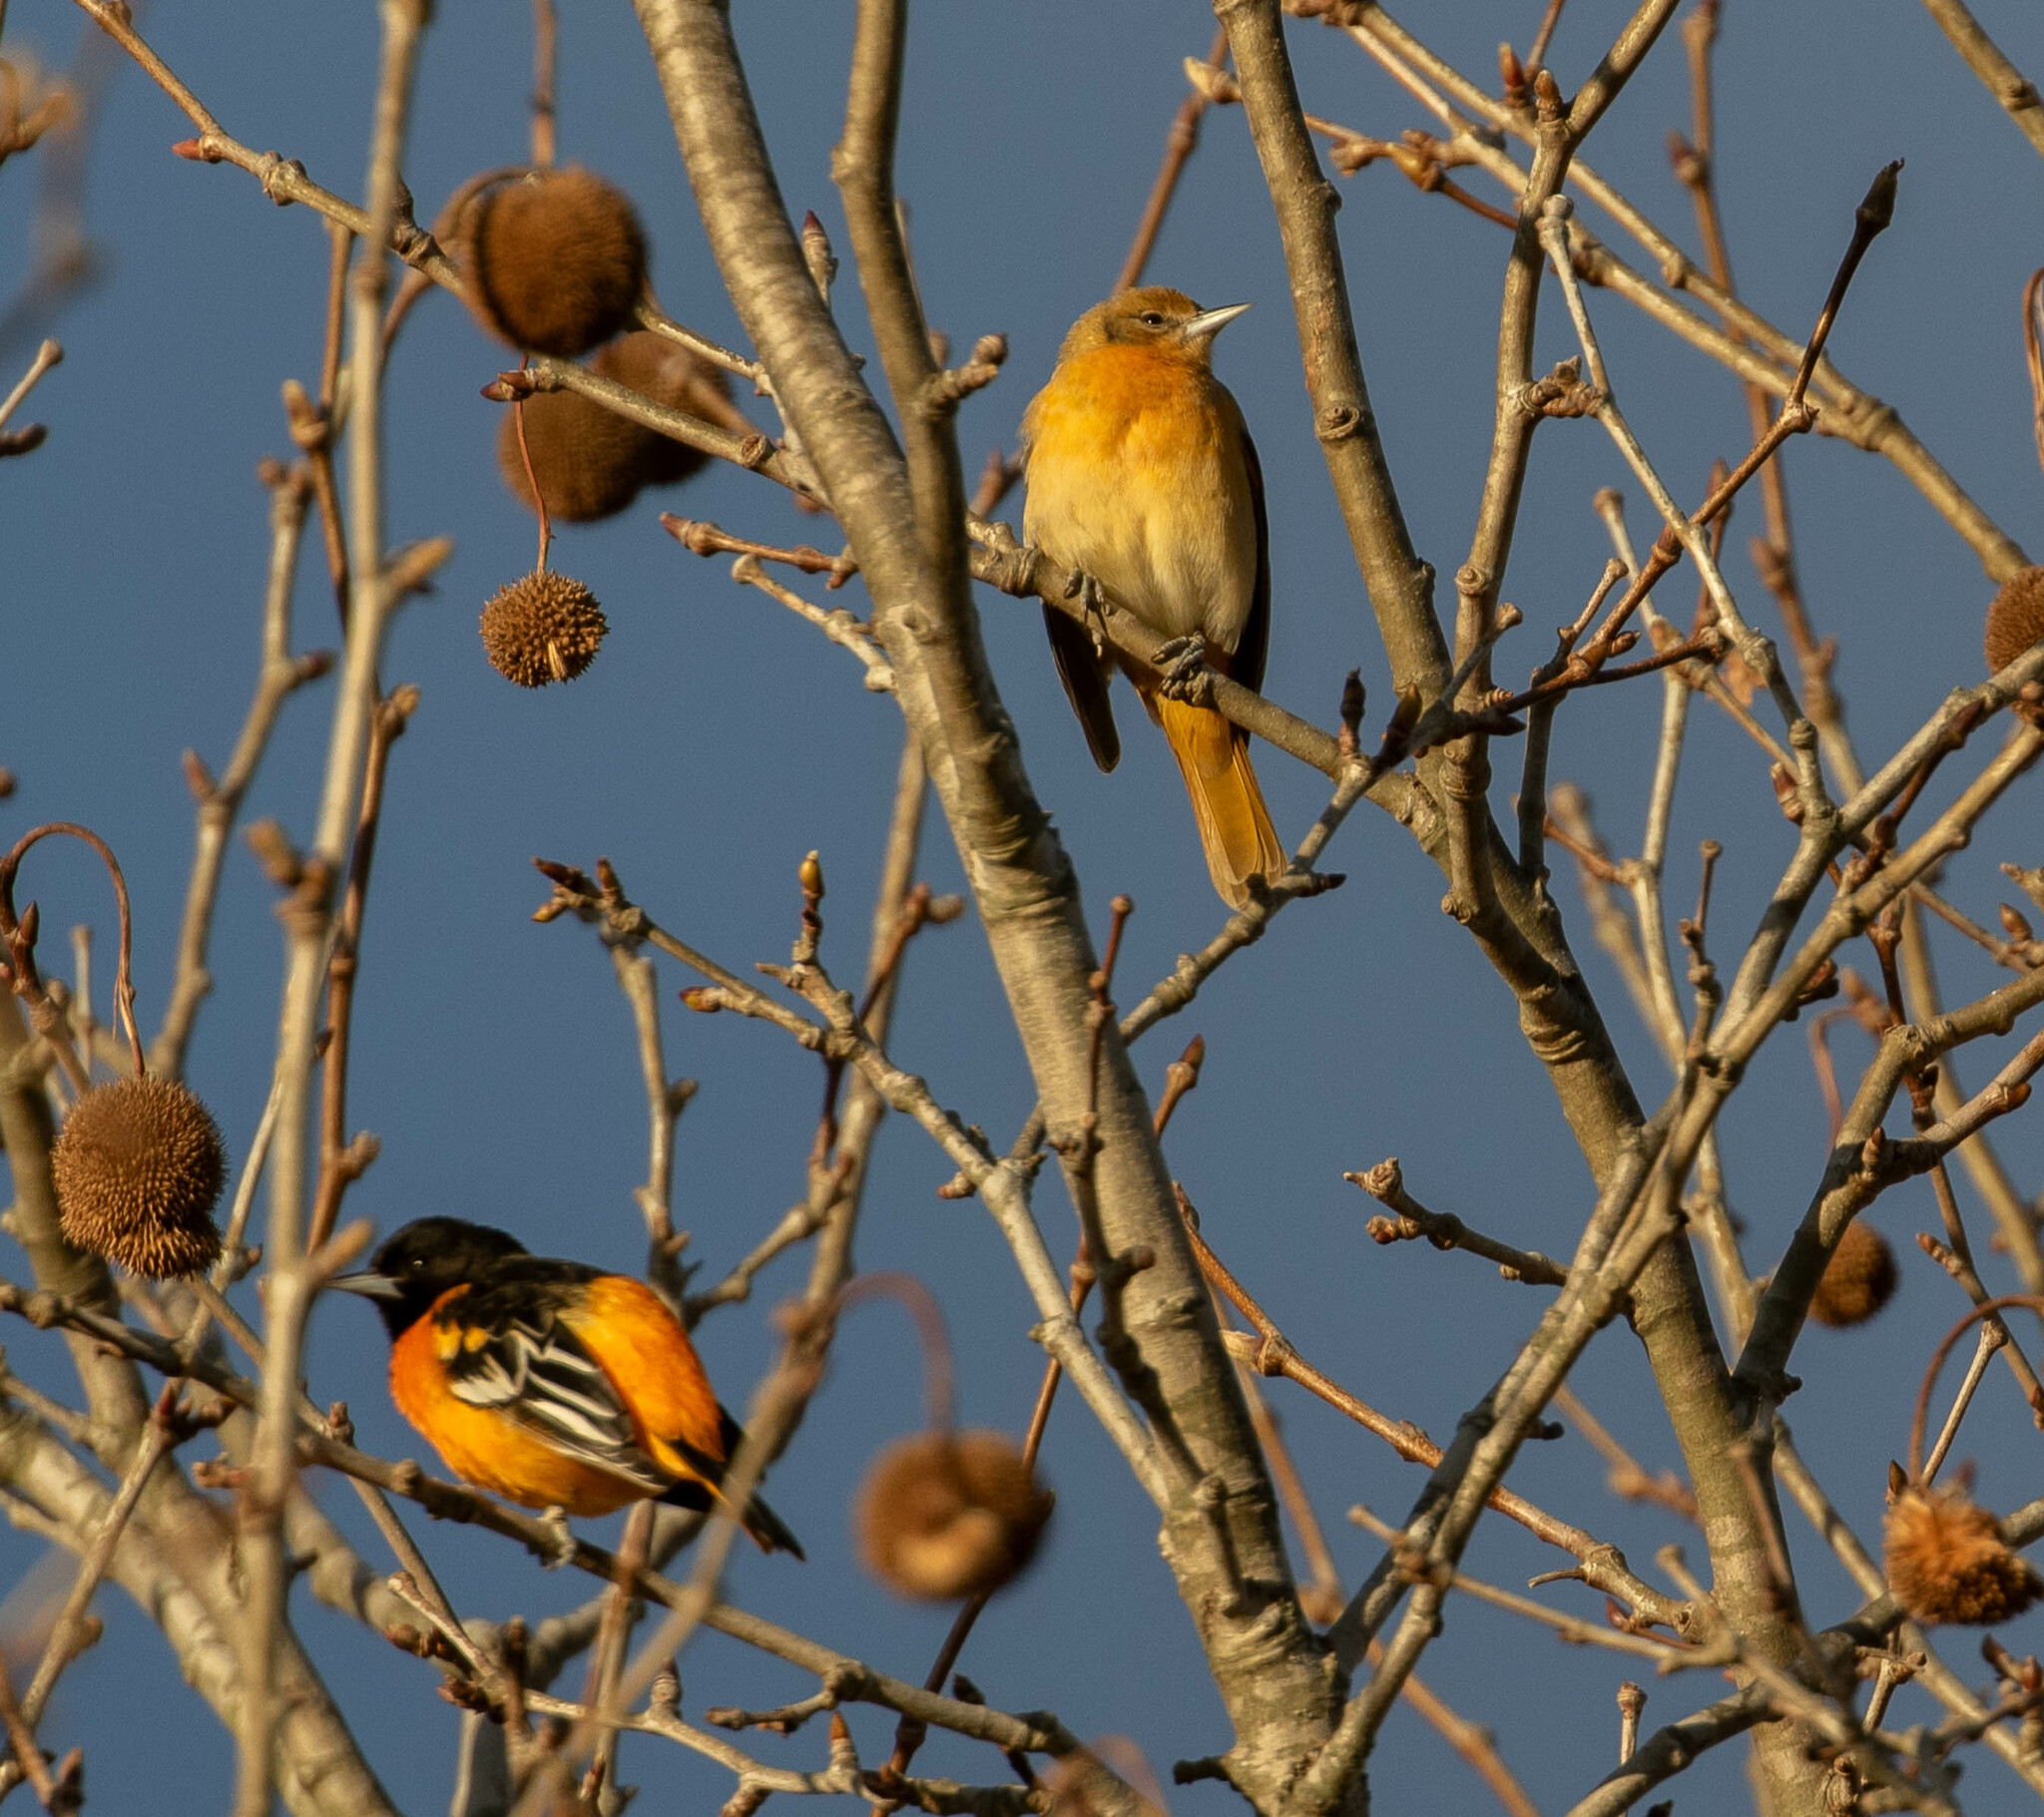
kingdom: Animalia
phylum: Chordata
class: Aves
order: Passeriformes
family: Icteridae
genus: Icterus
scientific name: Icterus galbula
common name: Baltimore oriole
